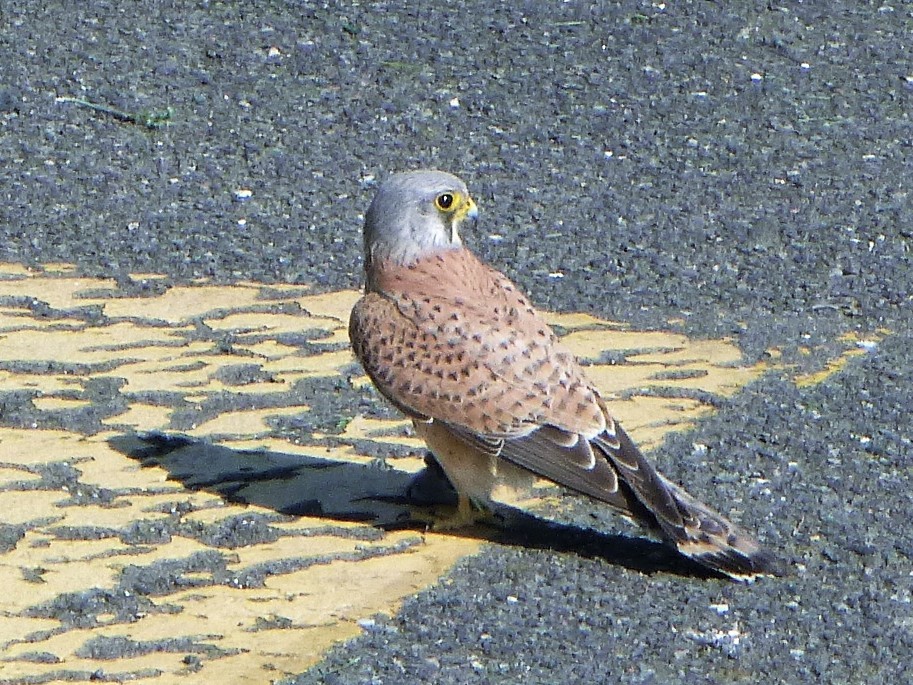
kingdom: Animalia
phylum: Chordata
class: Aves
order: Falconiformes
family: Falconidae
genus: Falco
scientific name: Falco tinnunculus
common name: Common kestrel
